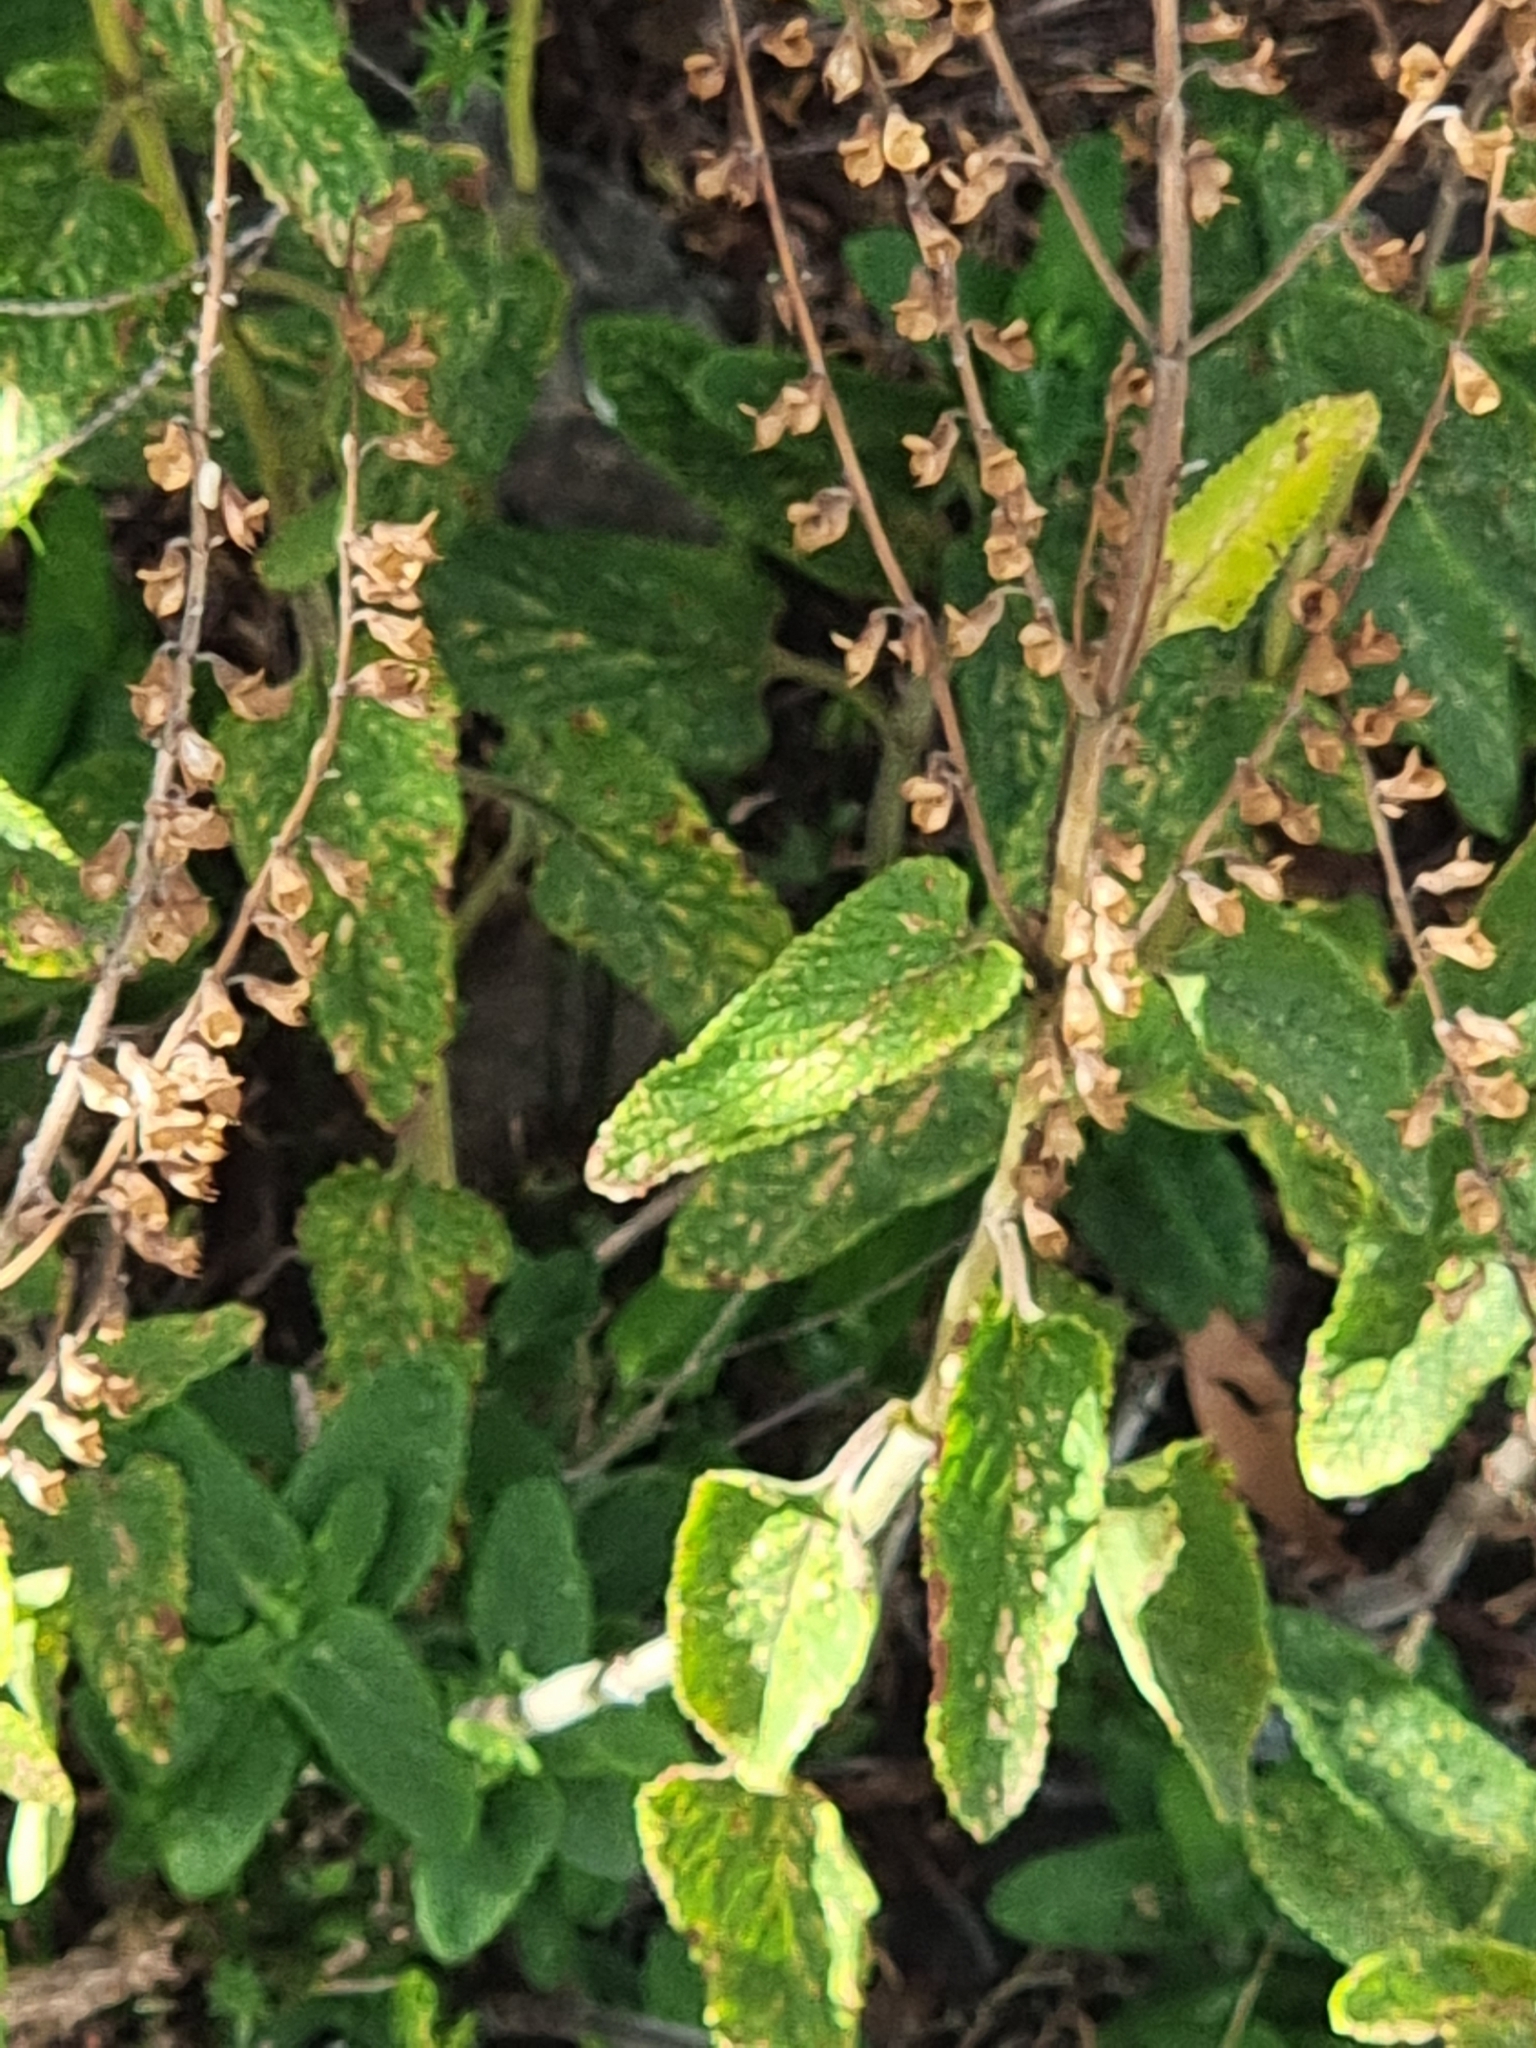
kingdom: Plantae
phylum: Tracheophyta
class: Magnoliopsida
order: Lamiales
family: Lamiaceae
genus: Teucrium
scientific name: Teucrium francoi
